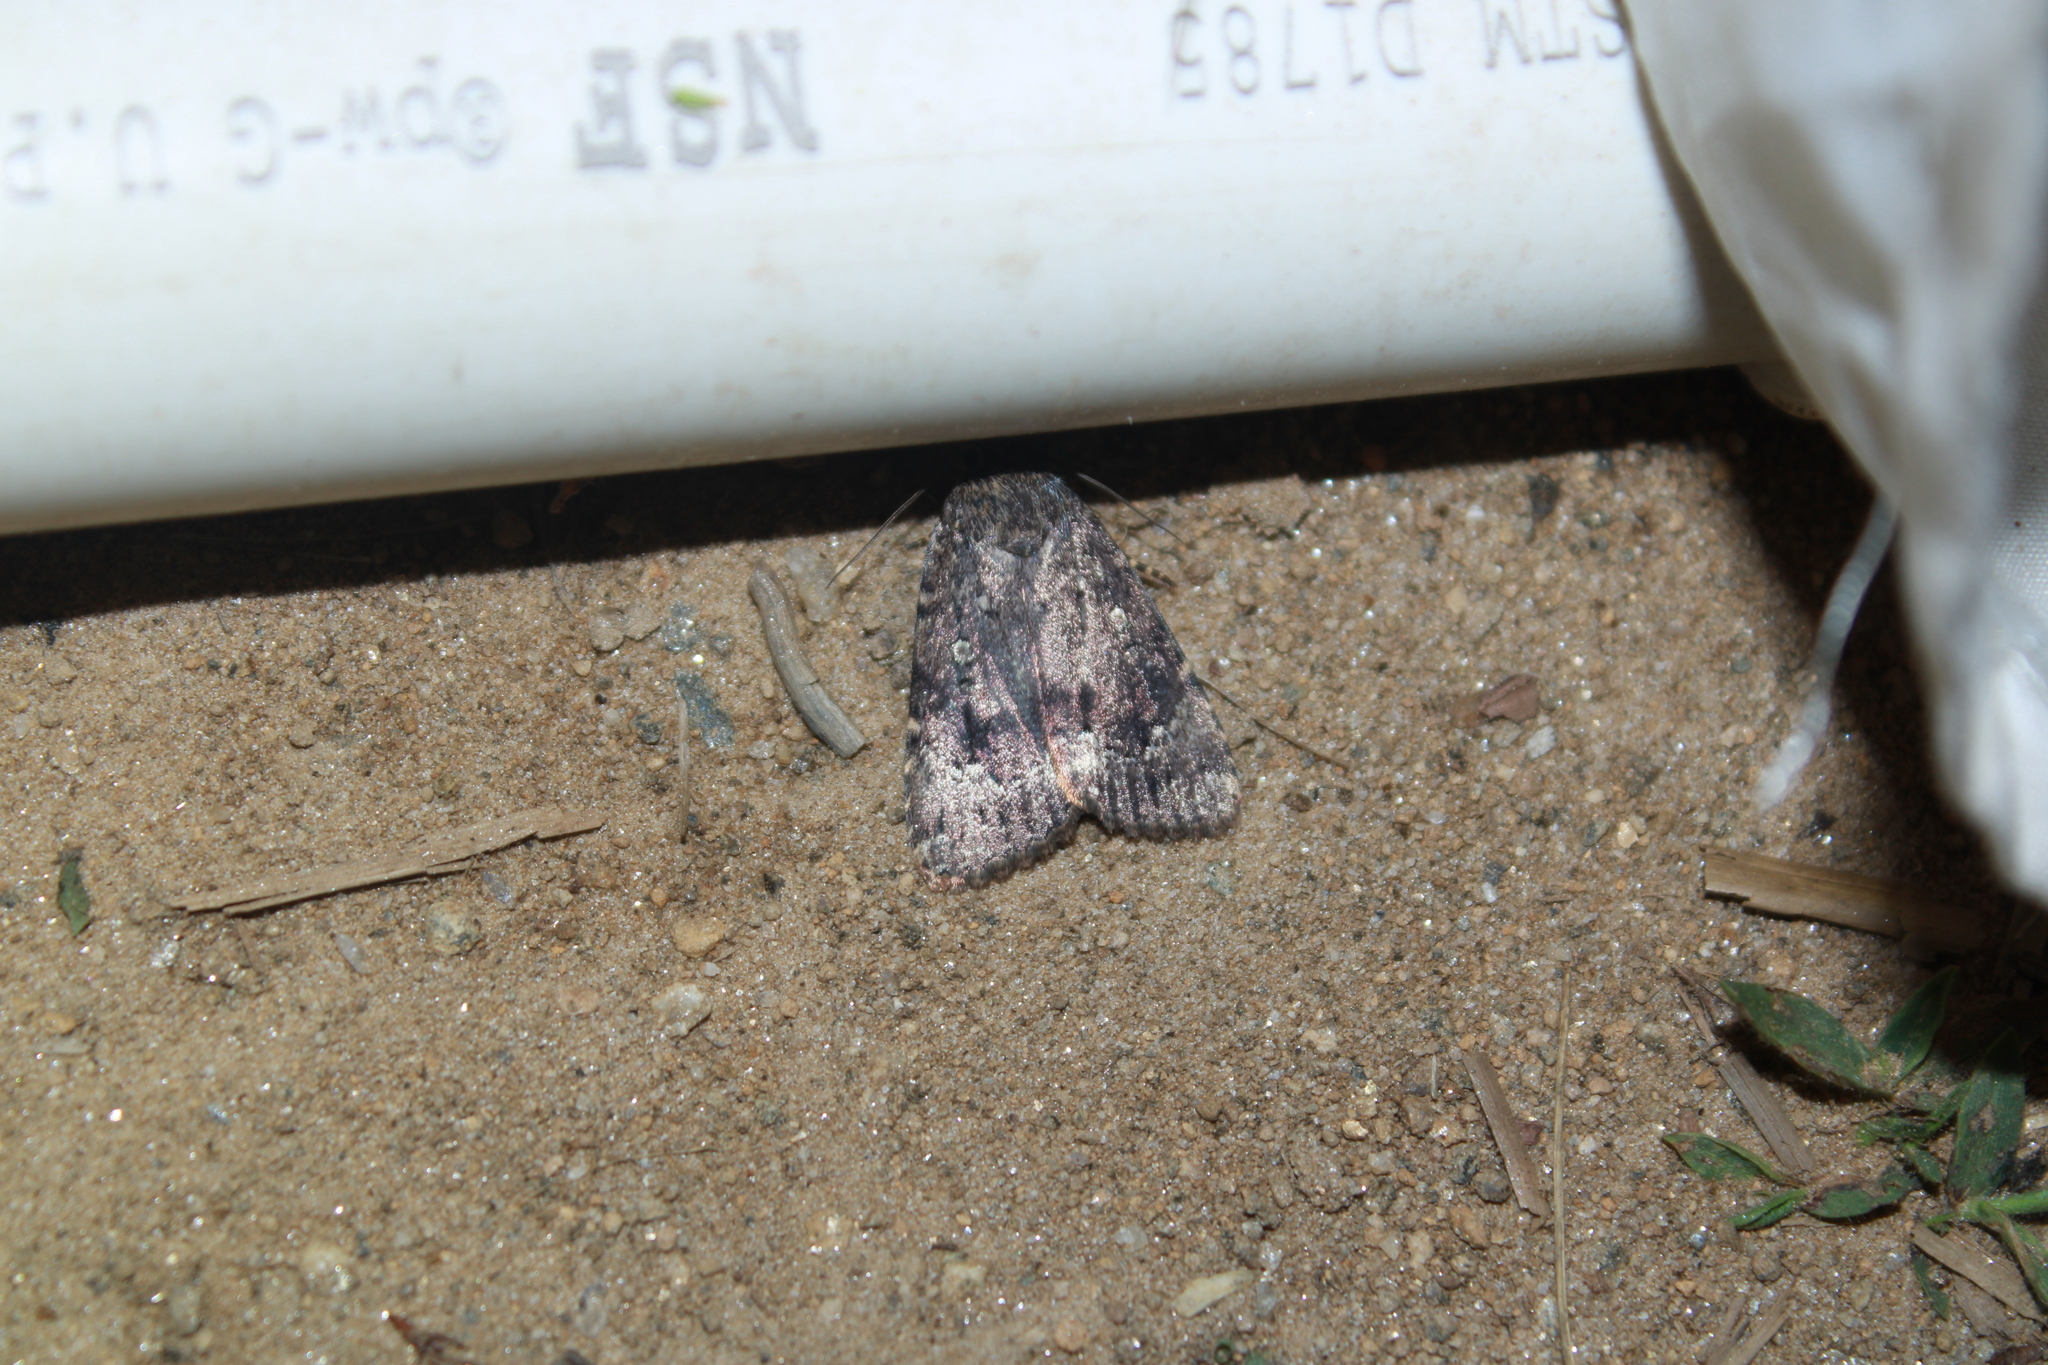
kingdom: Animalia
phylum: Arthropoda
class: Insecta
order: Lepidoptera
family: Noctuidae
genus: Amphipyra
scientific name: Amphipyra pyramidoides
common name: American copper underwing
